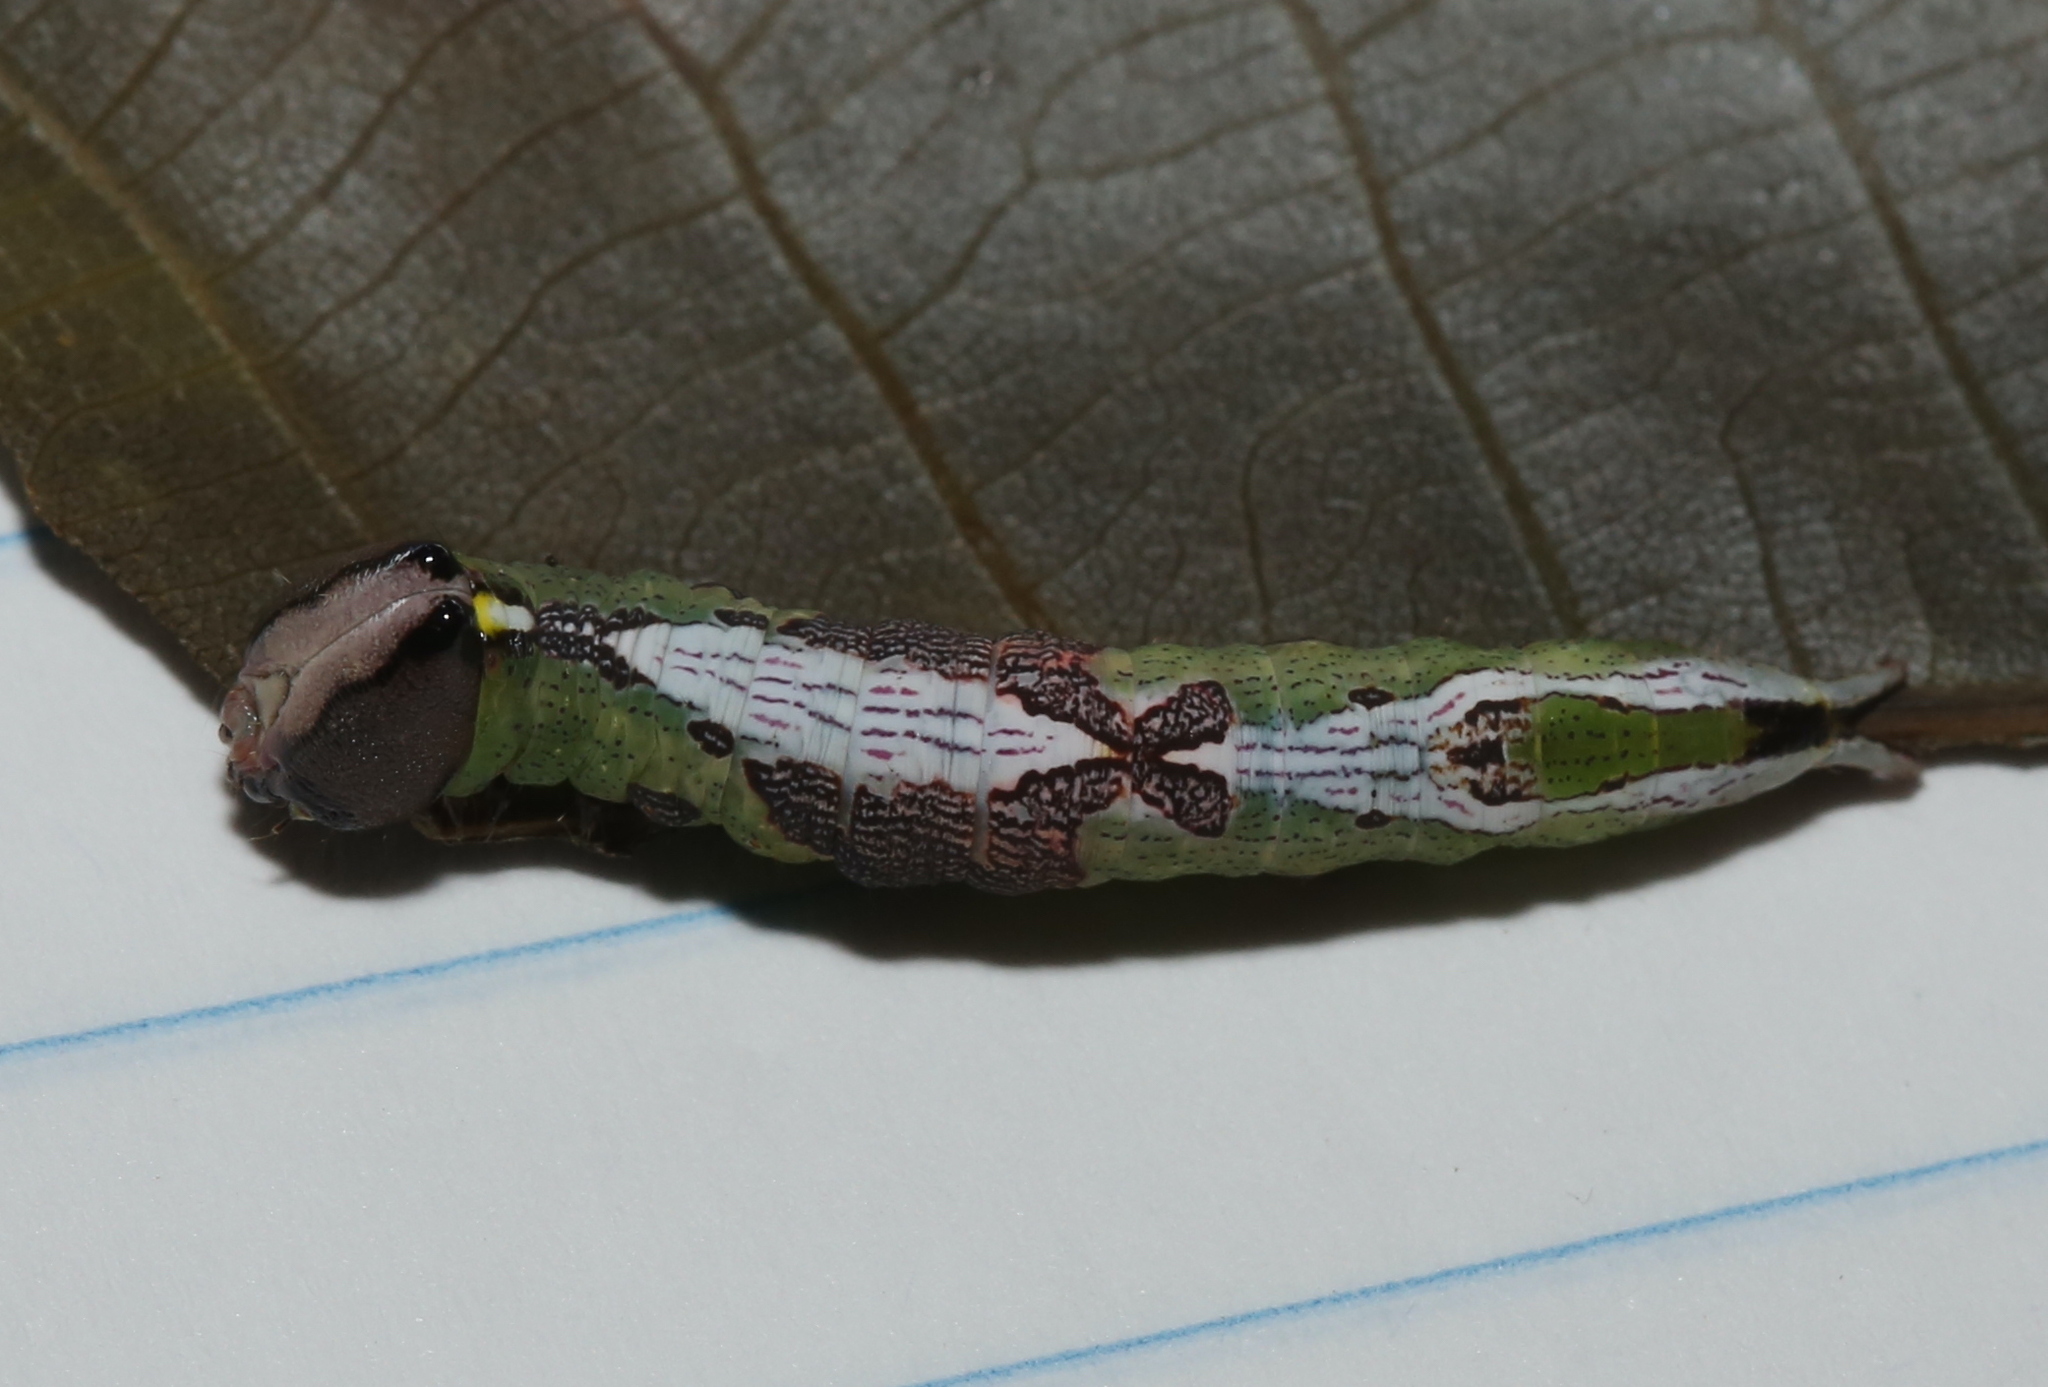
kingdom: Animalia
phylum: Arthropoda
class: Insecta
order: Lepidoptera
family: Notodontidae
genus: Disphragis
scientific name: Disphragis Cecrita biundata
